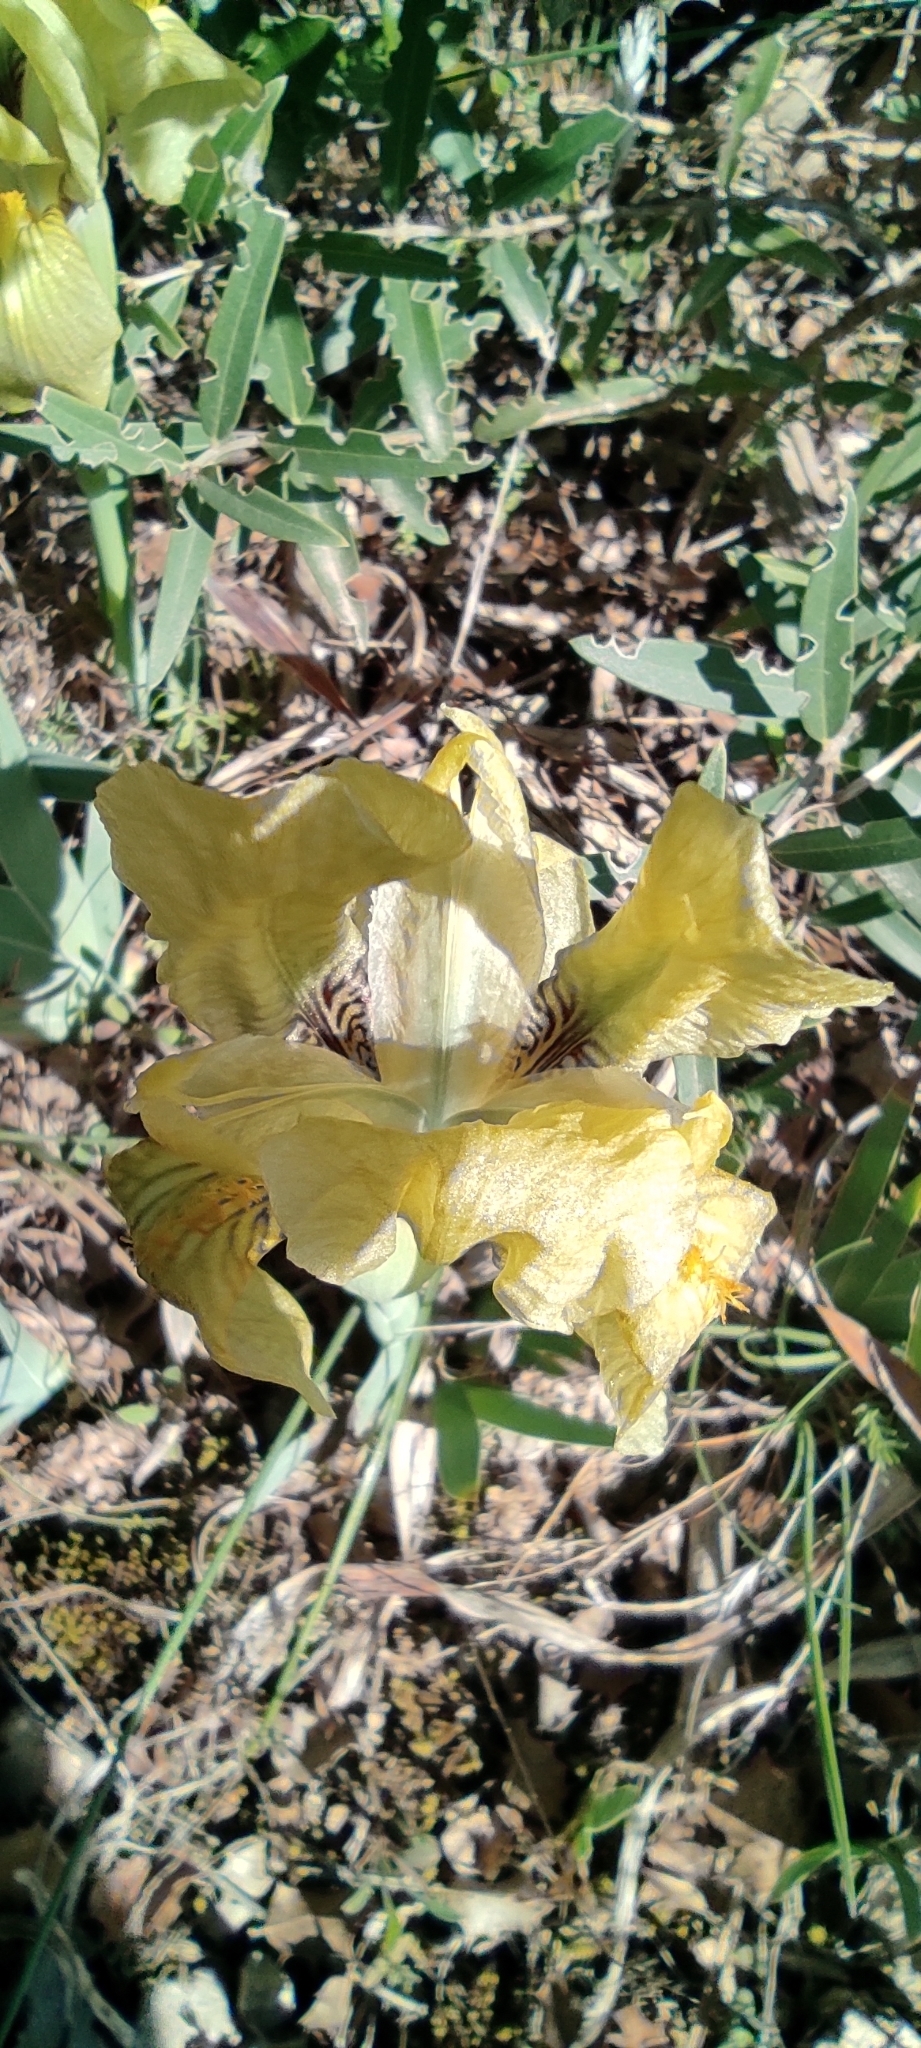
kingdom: Plantae
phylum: Tracheophyta
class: Liliopsida
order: Asparagales
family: Iridaceae
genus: Iris
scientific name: Iris lutescens
